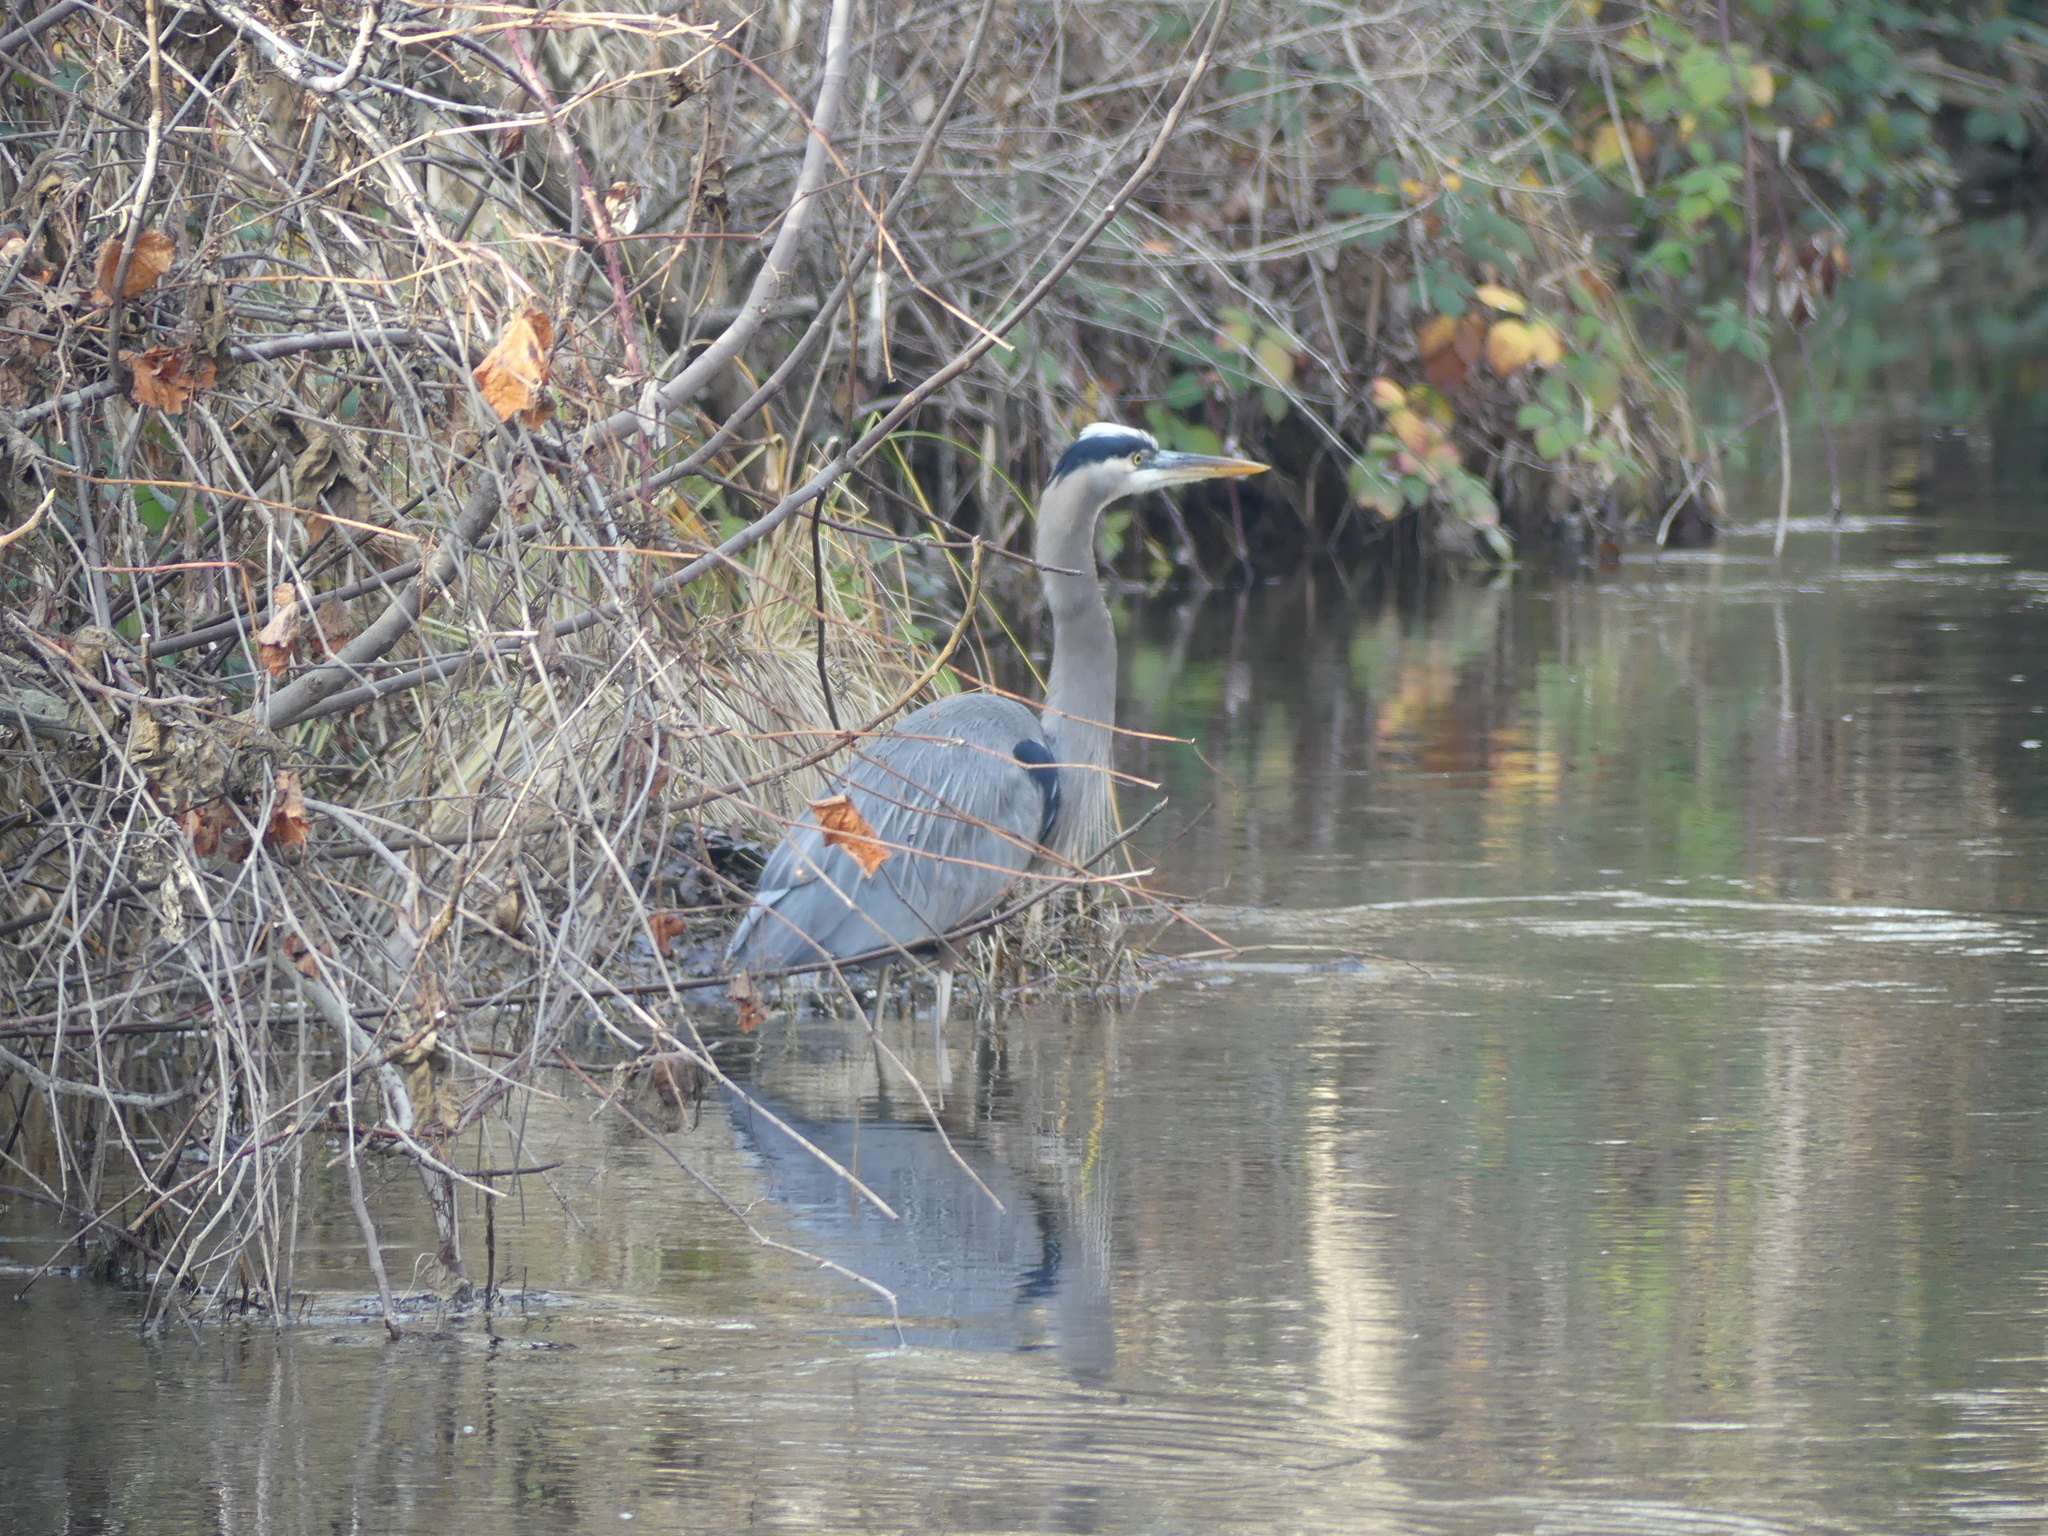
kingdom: Animalia
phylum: Chordata
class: Aves
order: Pelecaniformes
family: Ardeidae
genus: Ardea
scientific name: Ardea herodias
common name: Great blue heron
